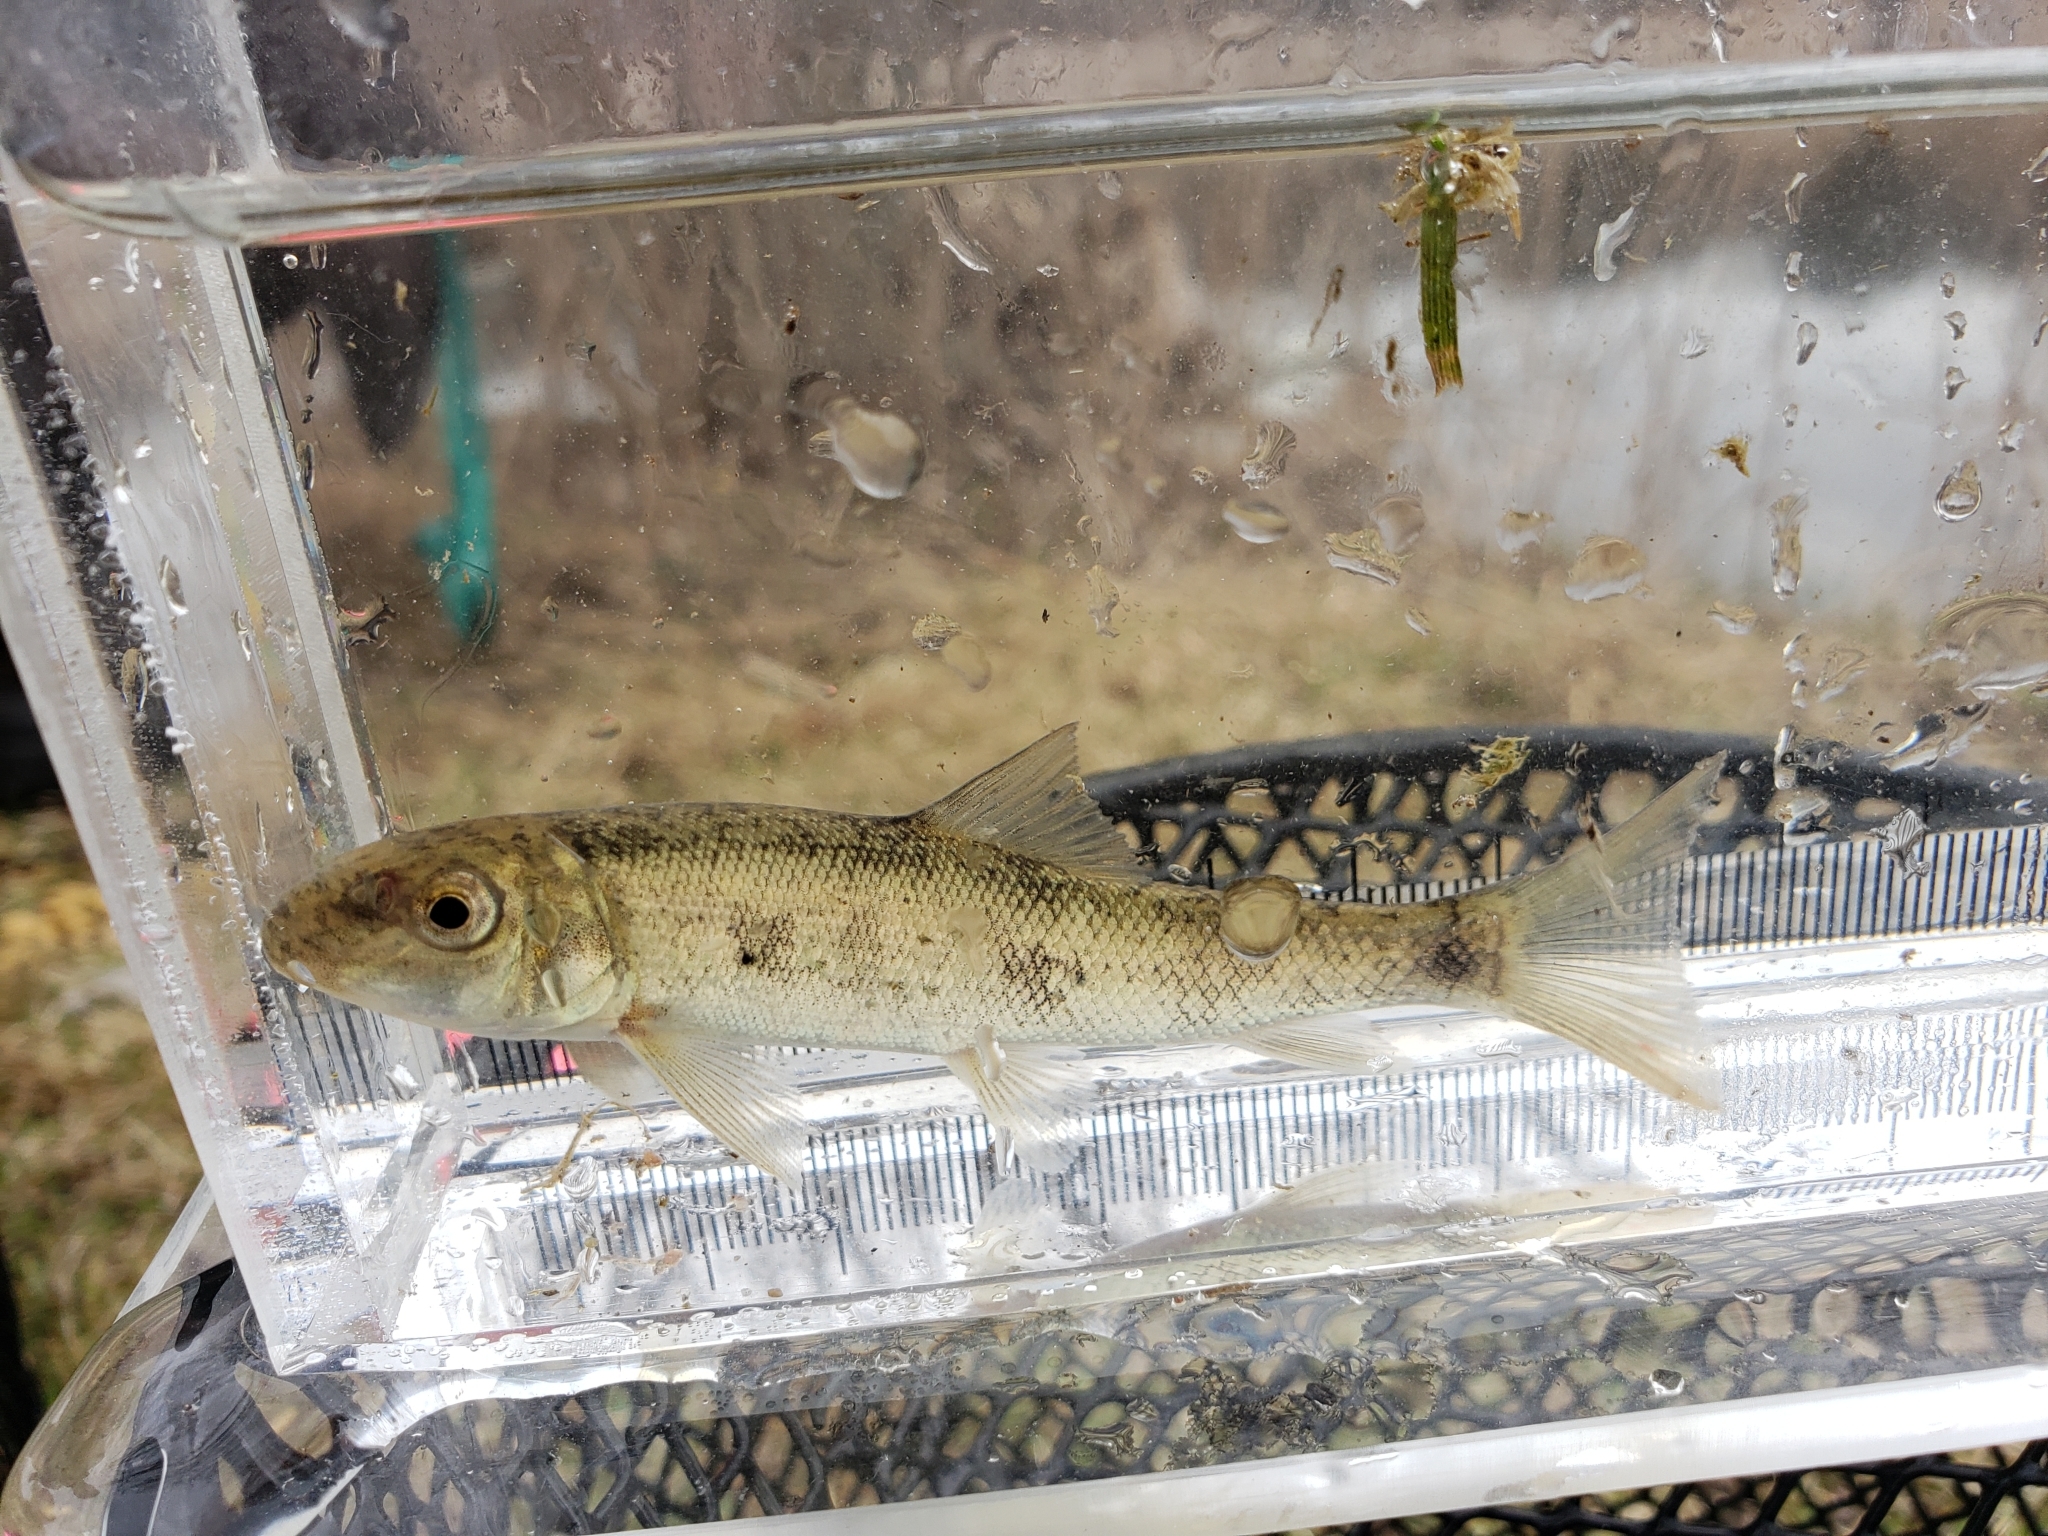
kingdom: Animalia
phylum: Chordata
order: Cypriniformes
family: Catostomidae
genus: Catostomus
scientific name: Catostomus commersonii
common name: White sucker
